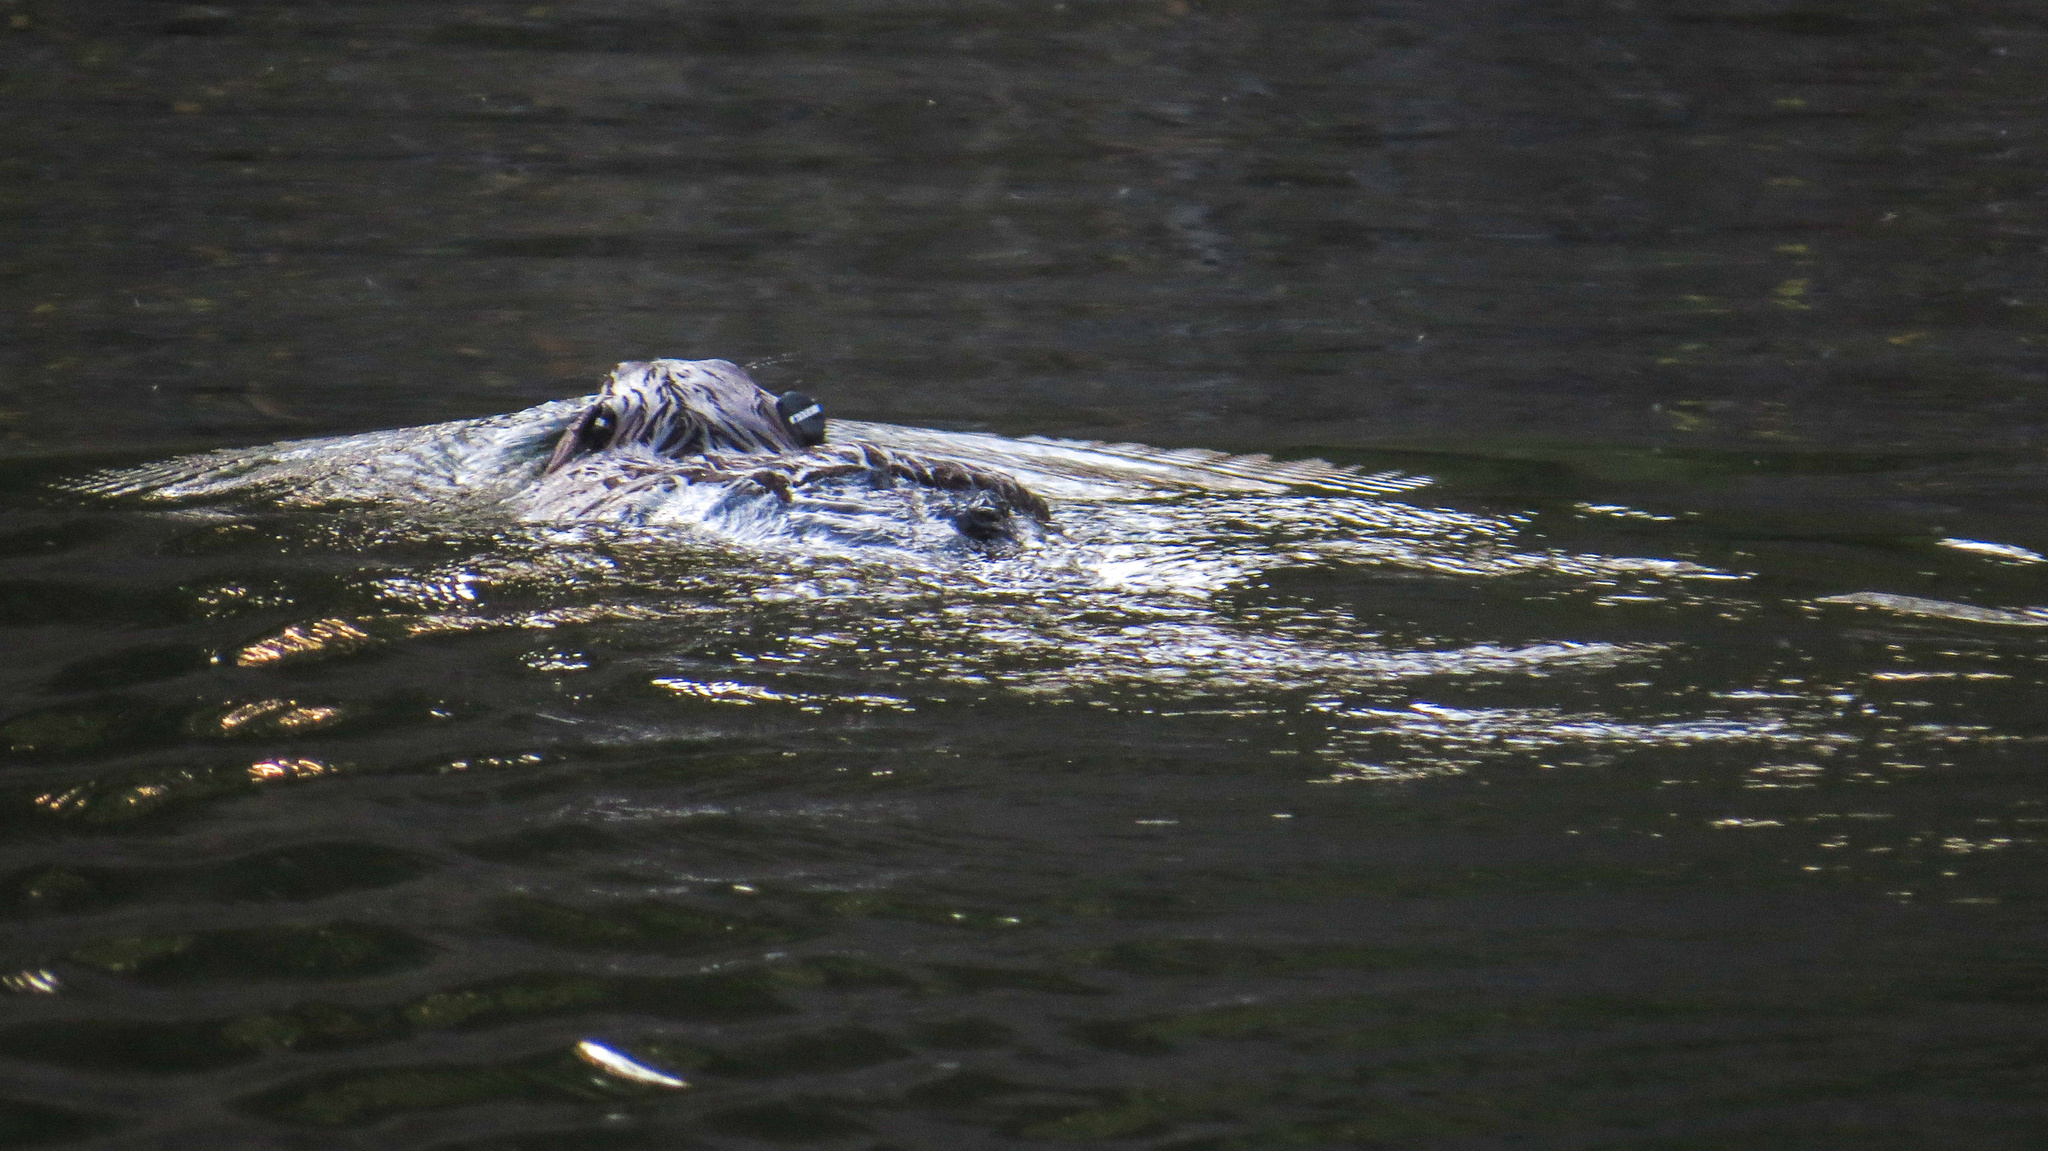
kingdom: Animalia
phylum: Chordata
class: Mammalia
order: Rodentia
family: Castoridae
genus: Castor
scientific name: Castor canadensis
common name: American beaver
